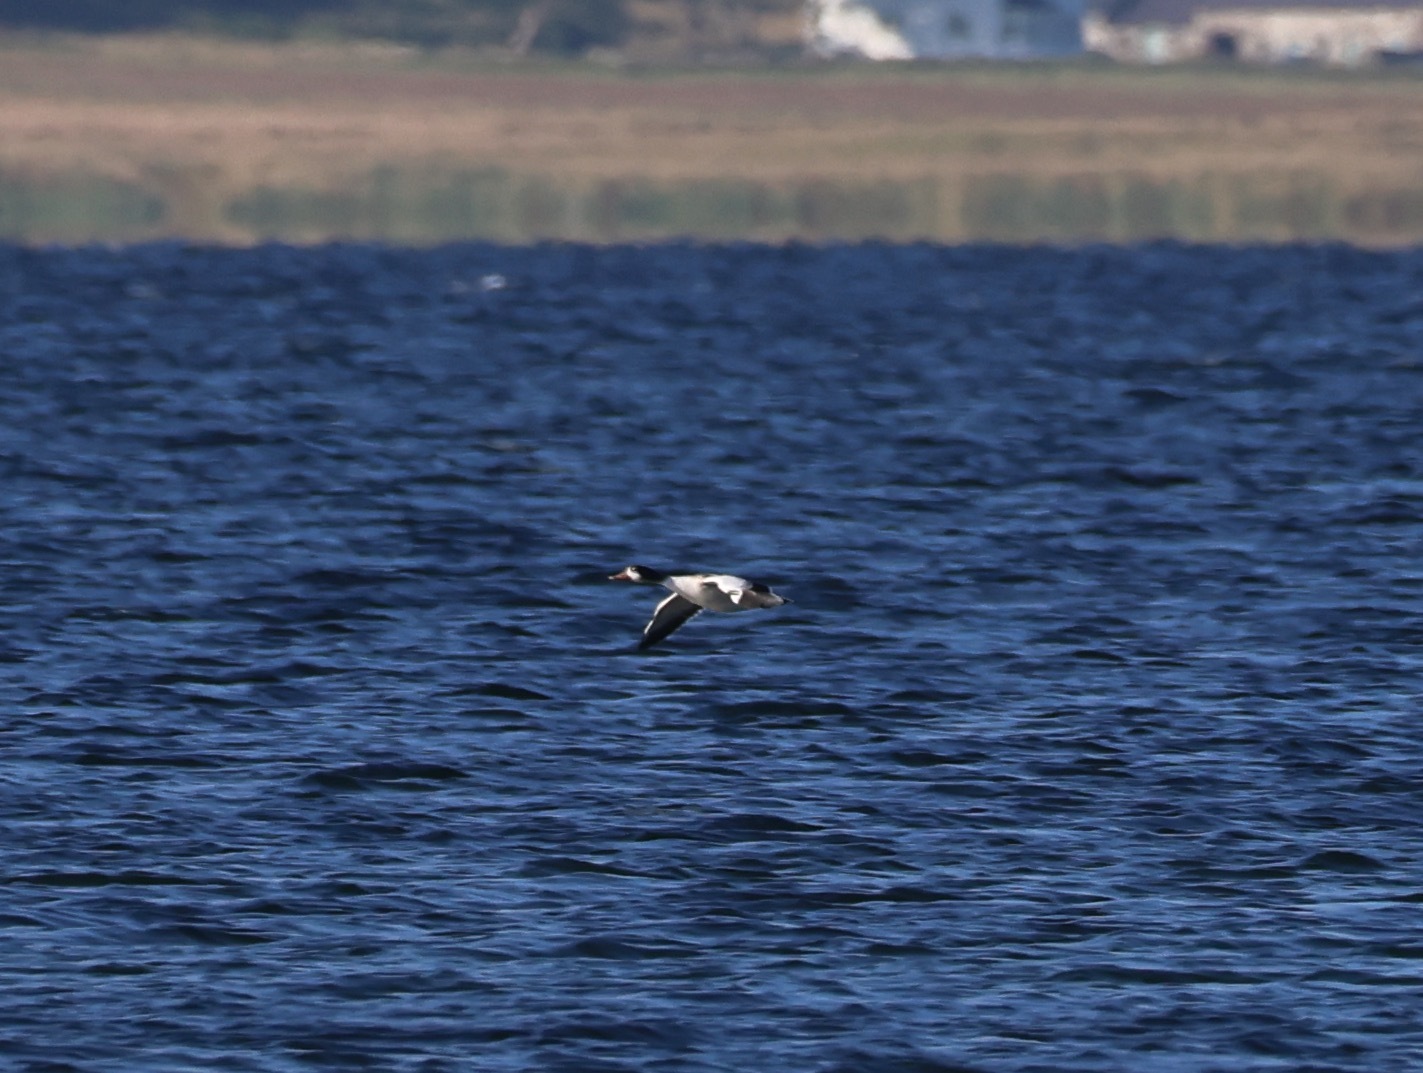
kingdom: Animalia
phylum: Chordata
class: Aves
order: Anseriformes
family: Anatidae
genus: Tadorna
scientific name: Tadorna tadorna
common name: Common shelduck
